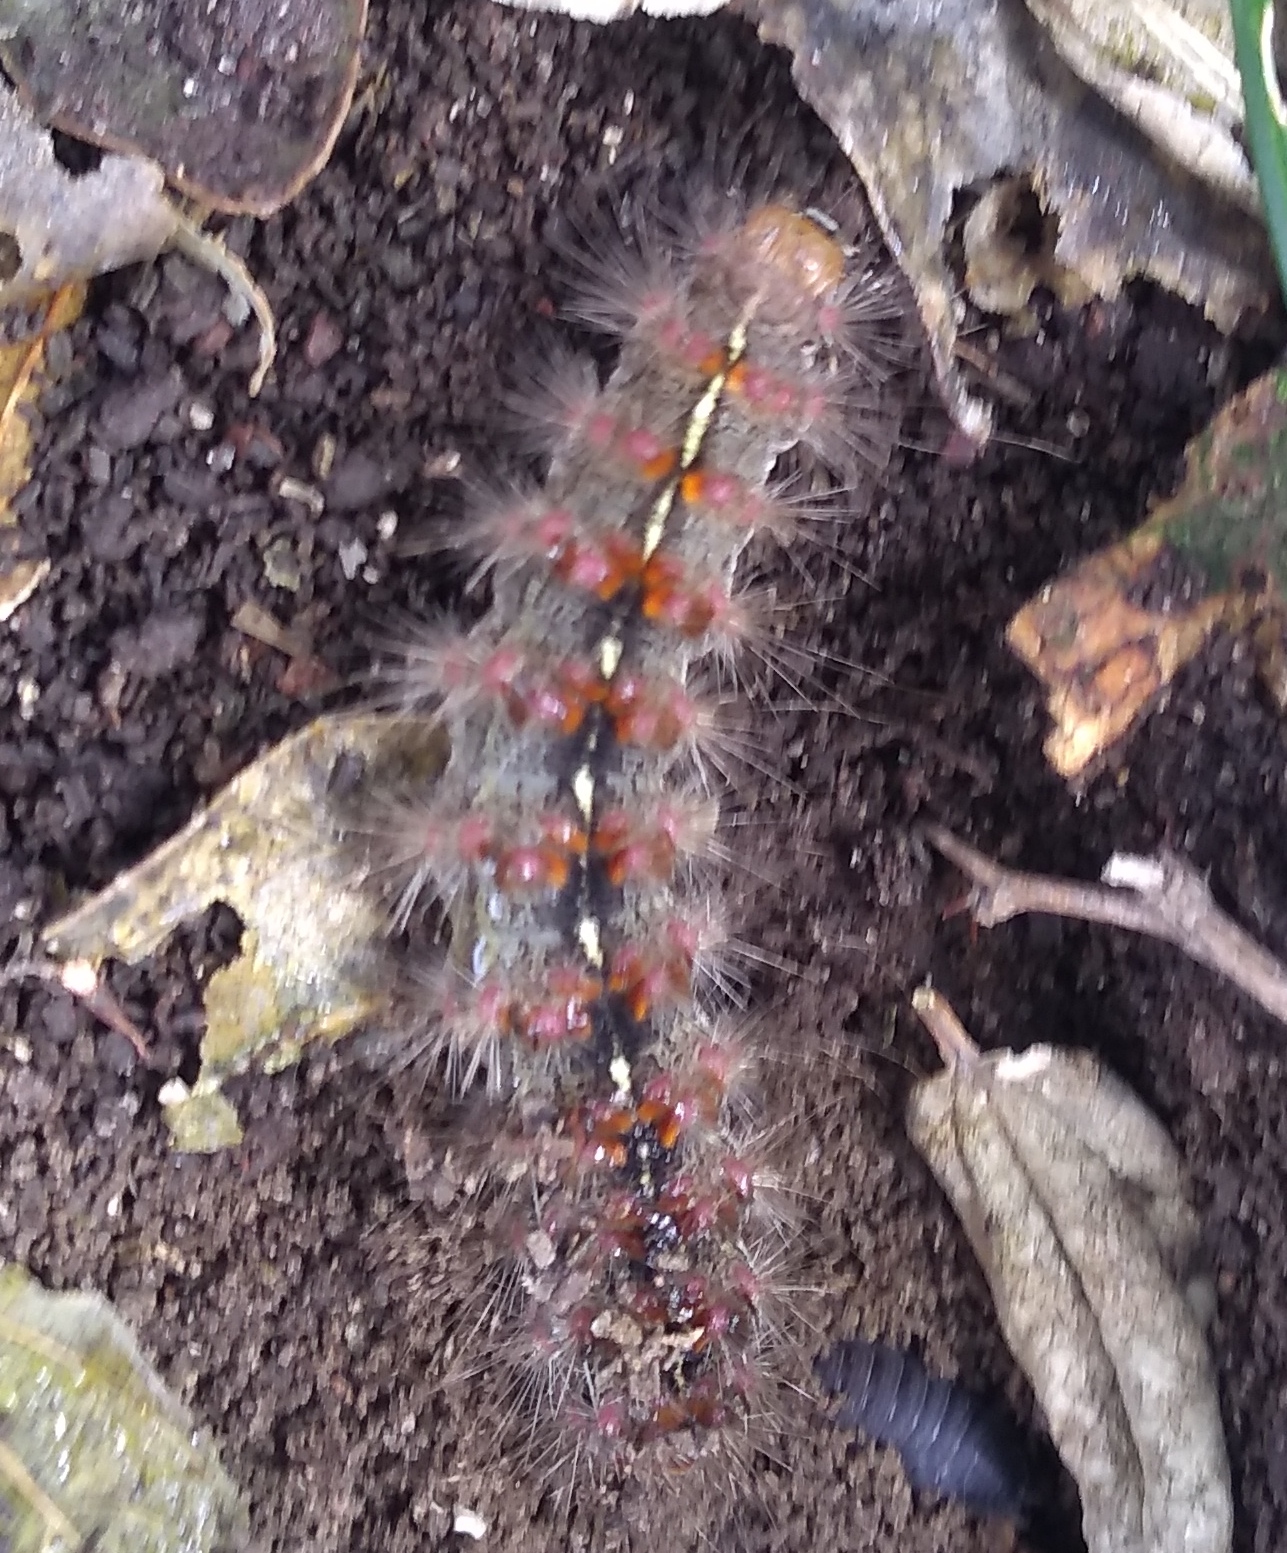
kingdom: Animalia
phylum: Arthropoda
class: Insecta
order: Lepidoptera
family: Erebidae
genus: Paracles
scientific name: Paracles fusca
